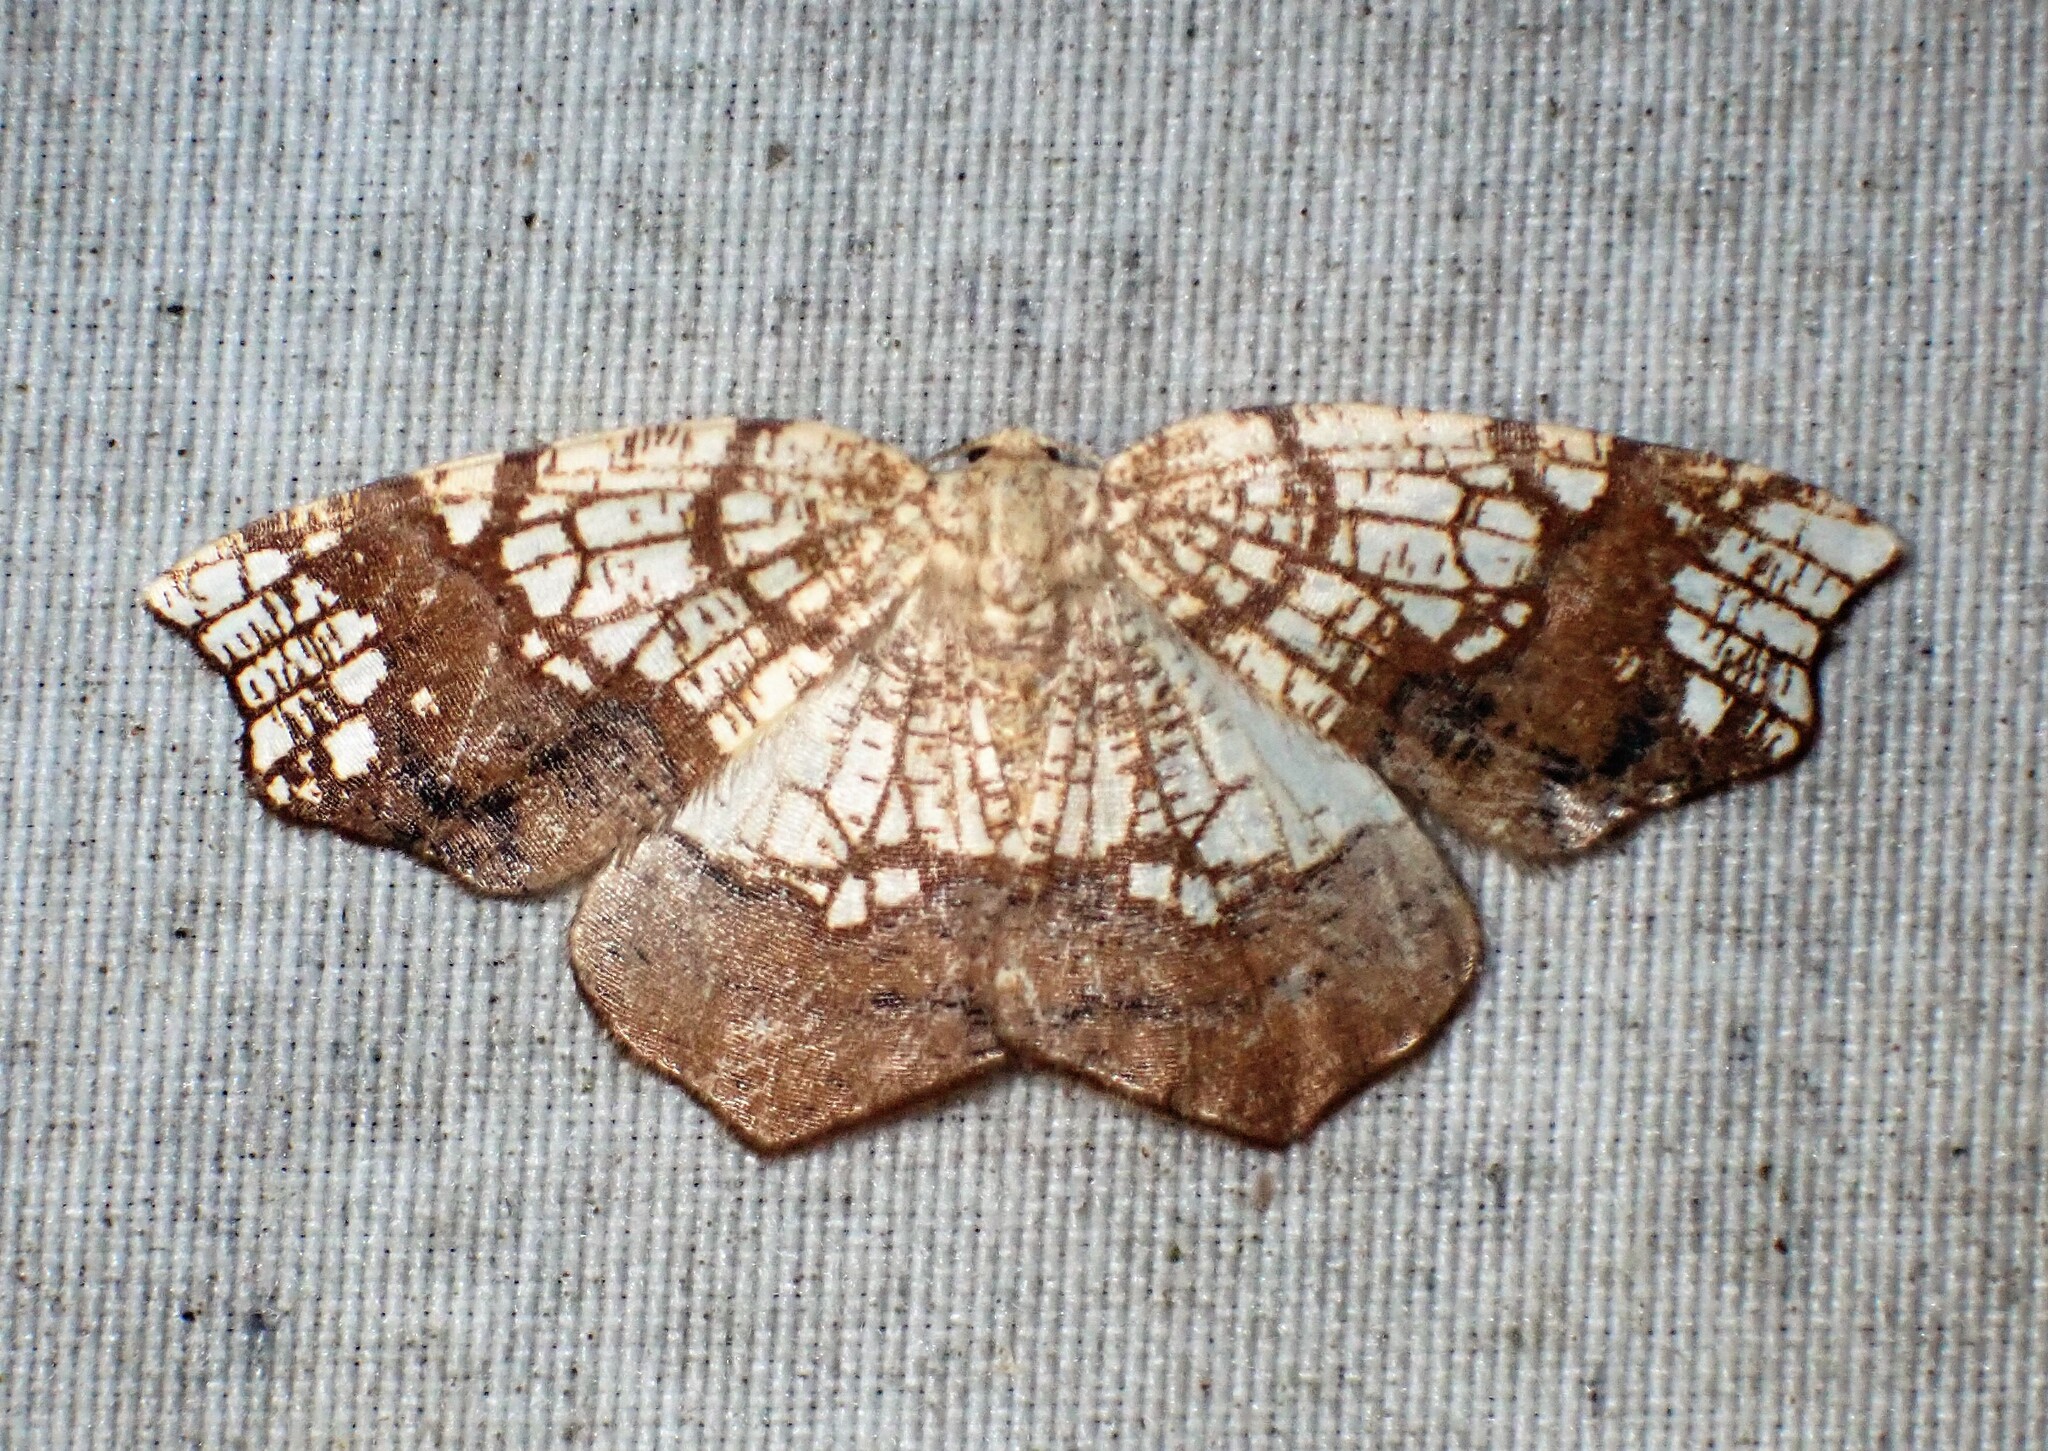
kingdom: Animalia
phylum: Arthropoda
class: Insecta
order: Lepidoptera
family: Geometridae
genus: Nematocampa
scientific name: Nematocampa resistaria
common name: Horned spanworm moth
